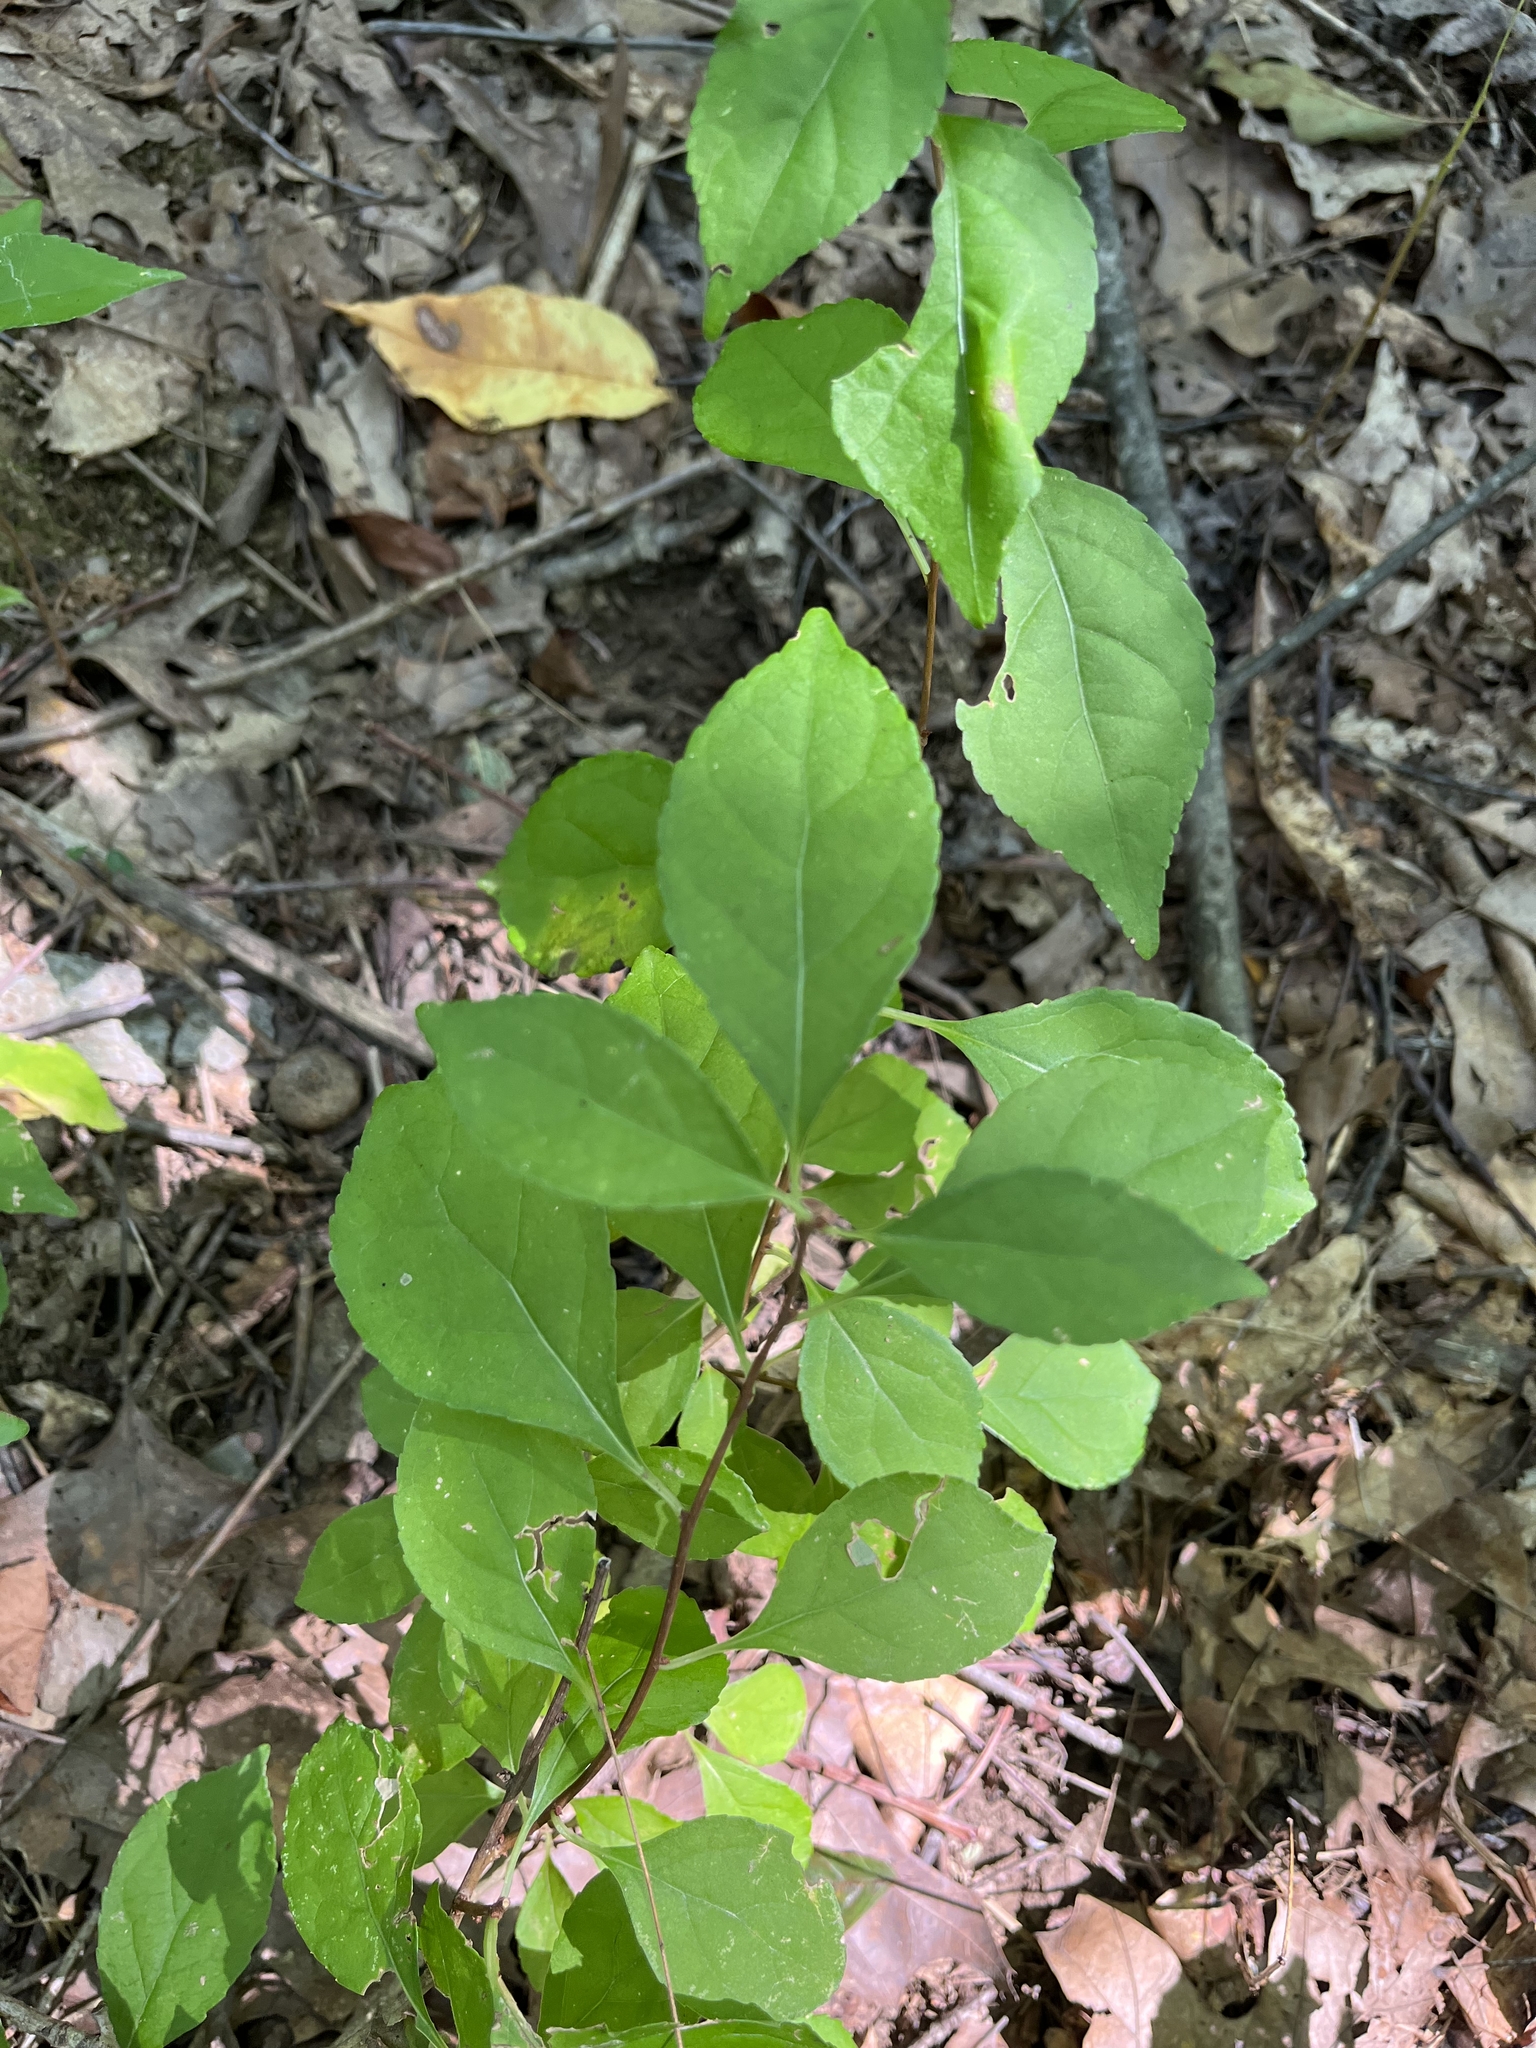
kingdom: Plantae
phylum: Tracheophyta
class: Magnoliopsida
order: Celastrales
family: Celastraceae
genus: Celastrus
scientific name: Celastrus orbiculatus
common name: Oriental bittersweet
